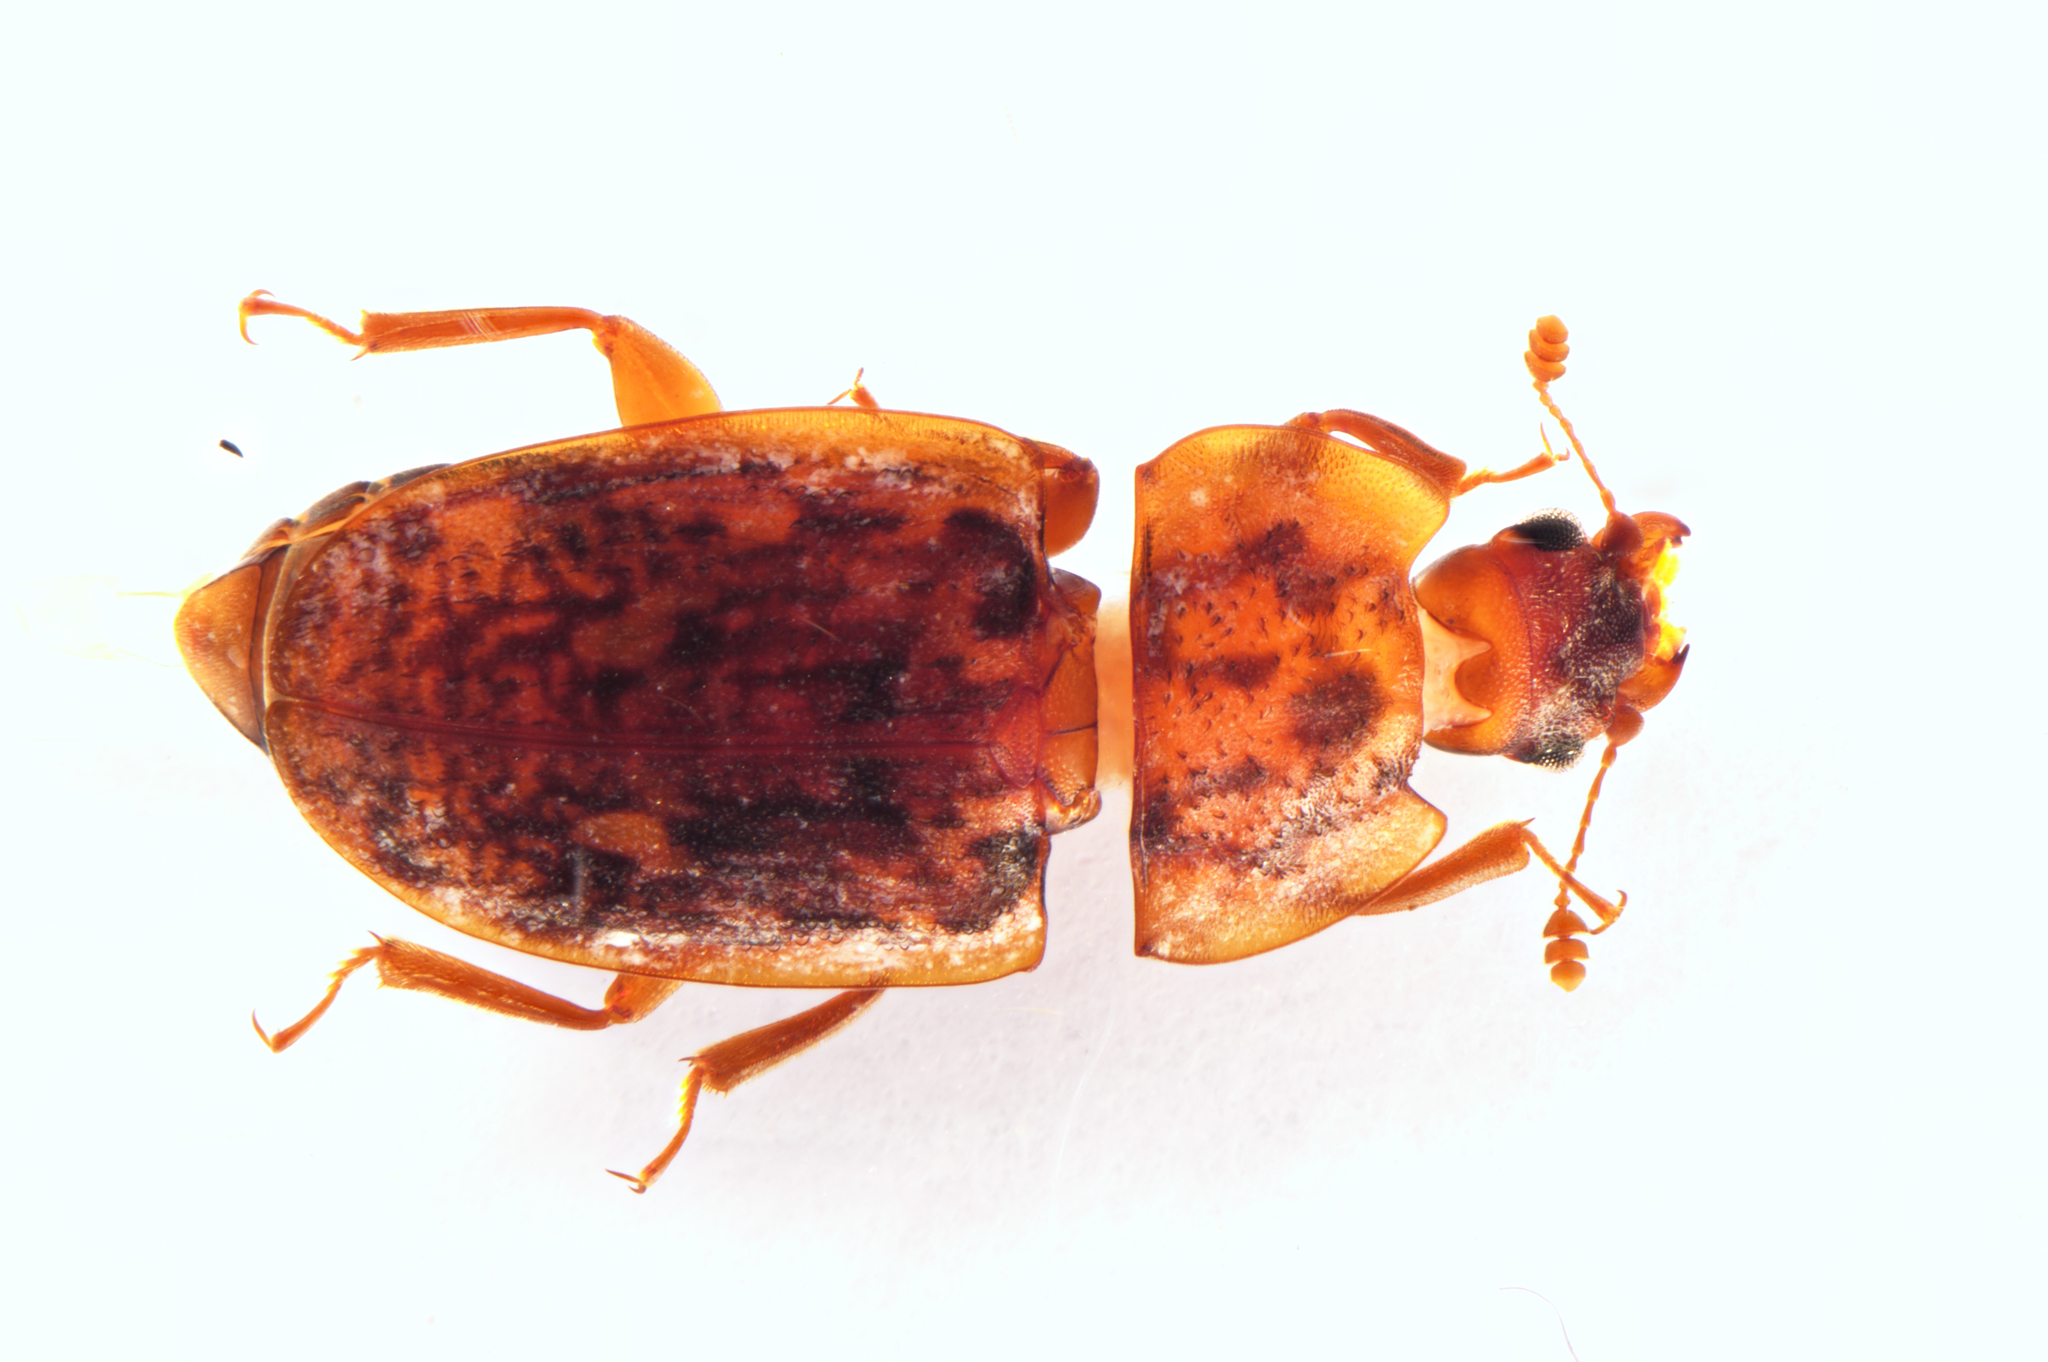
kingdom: Animalia
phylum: Arthropoda
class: Insecta
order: Coleoptera
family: Nitidulidae
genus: Soronia
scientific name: Soronia
